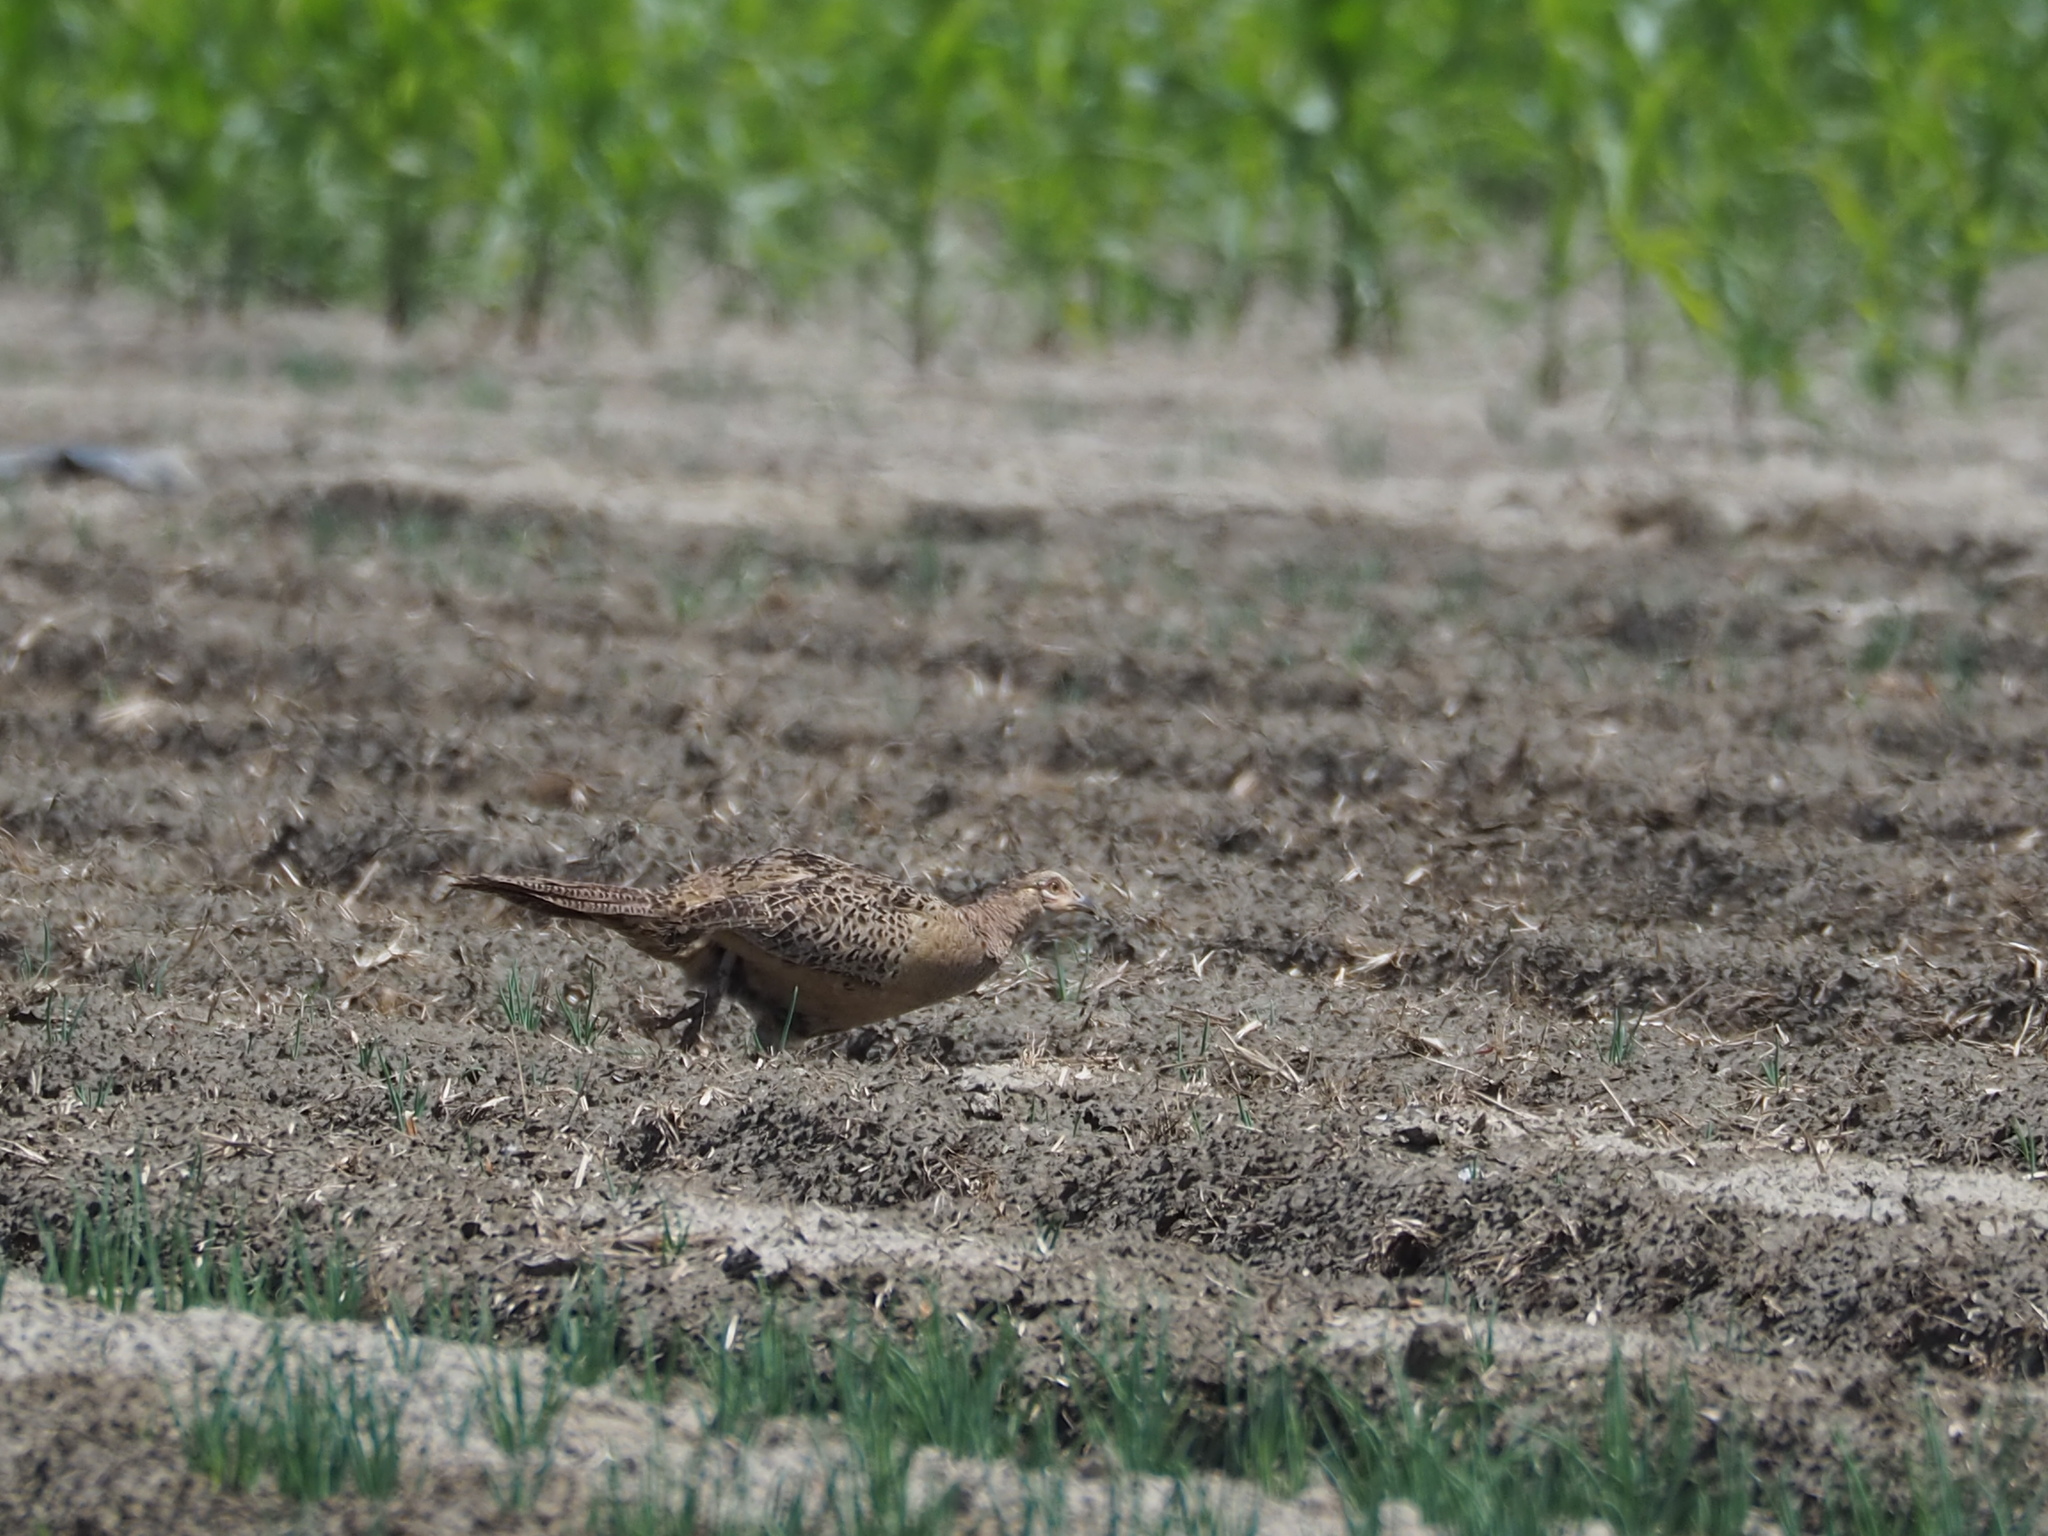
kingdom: Animalia
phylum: Chordata
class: Aves
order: Galliformes
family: Phasianidae
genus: Phasianus
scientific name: Phasianus colchicus
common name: Common pheasant
